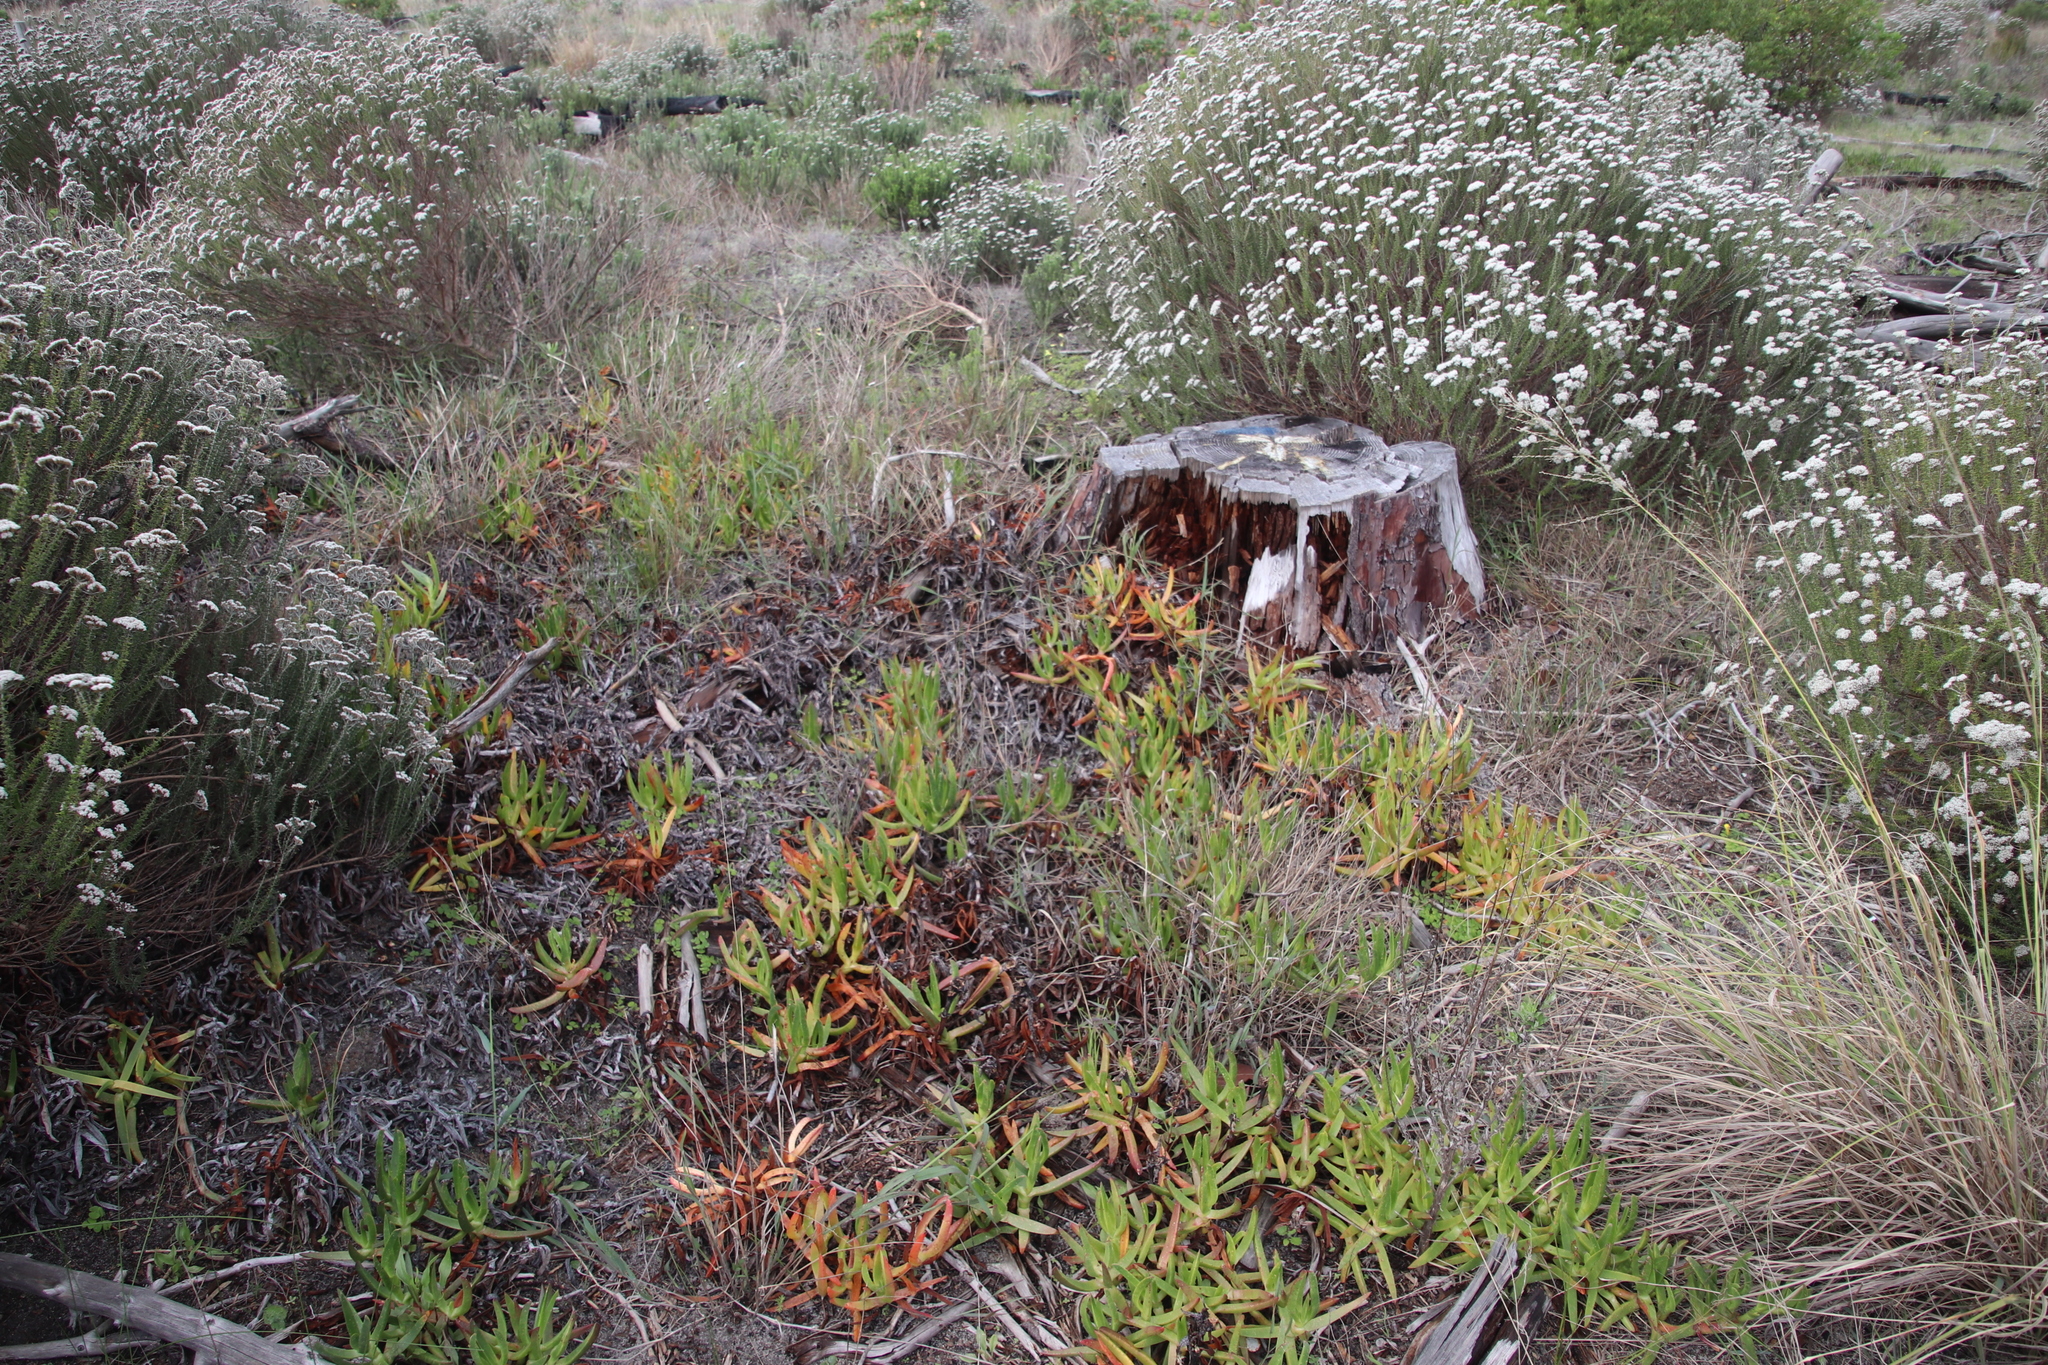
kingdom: Plantae
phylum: Tracheophyta
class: Magnoliopsida
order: Caryophyllales
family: Aizoaceae
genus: Carpobrotus
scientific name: Carpobrotus edulis
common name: Hottentot-fig
